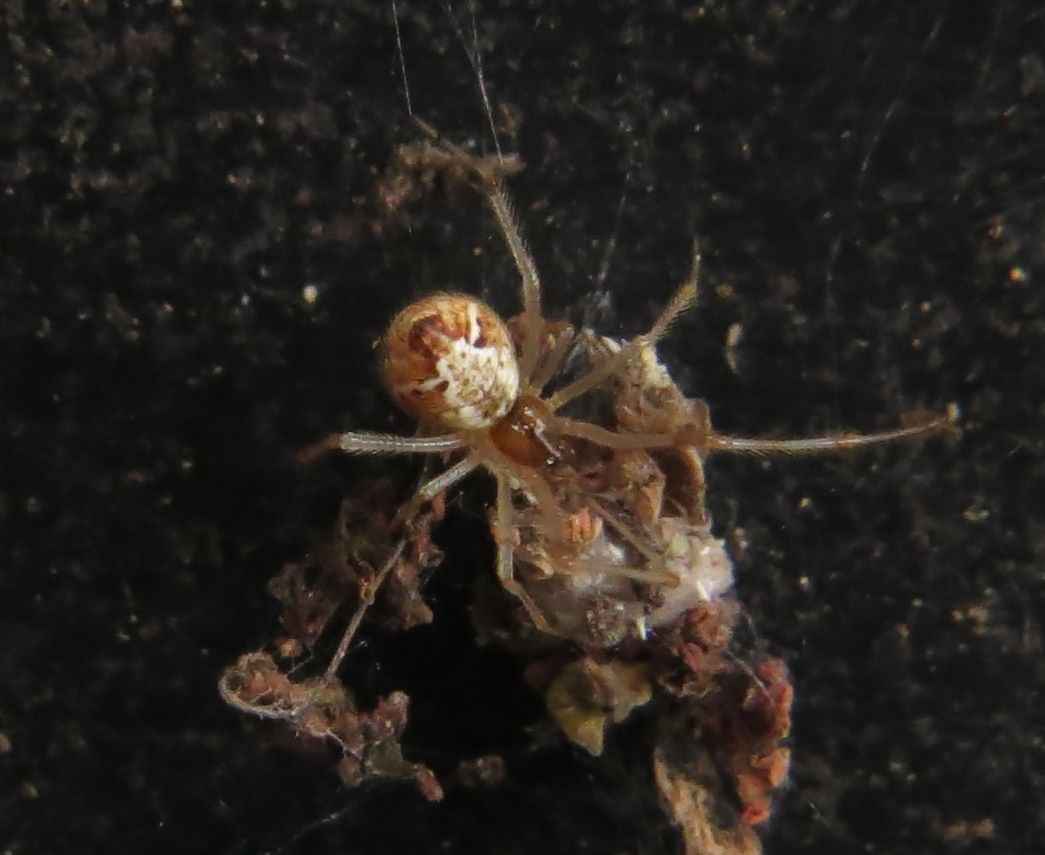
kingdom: Animalia
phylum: Arthropoda
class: Arachnida
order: Araneae
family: Theridiidae
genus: Cryptachaea
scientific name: Cryptachaea meraukensis
